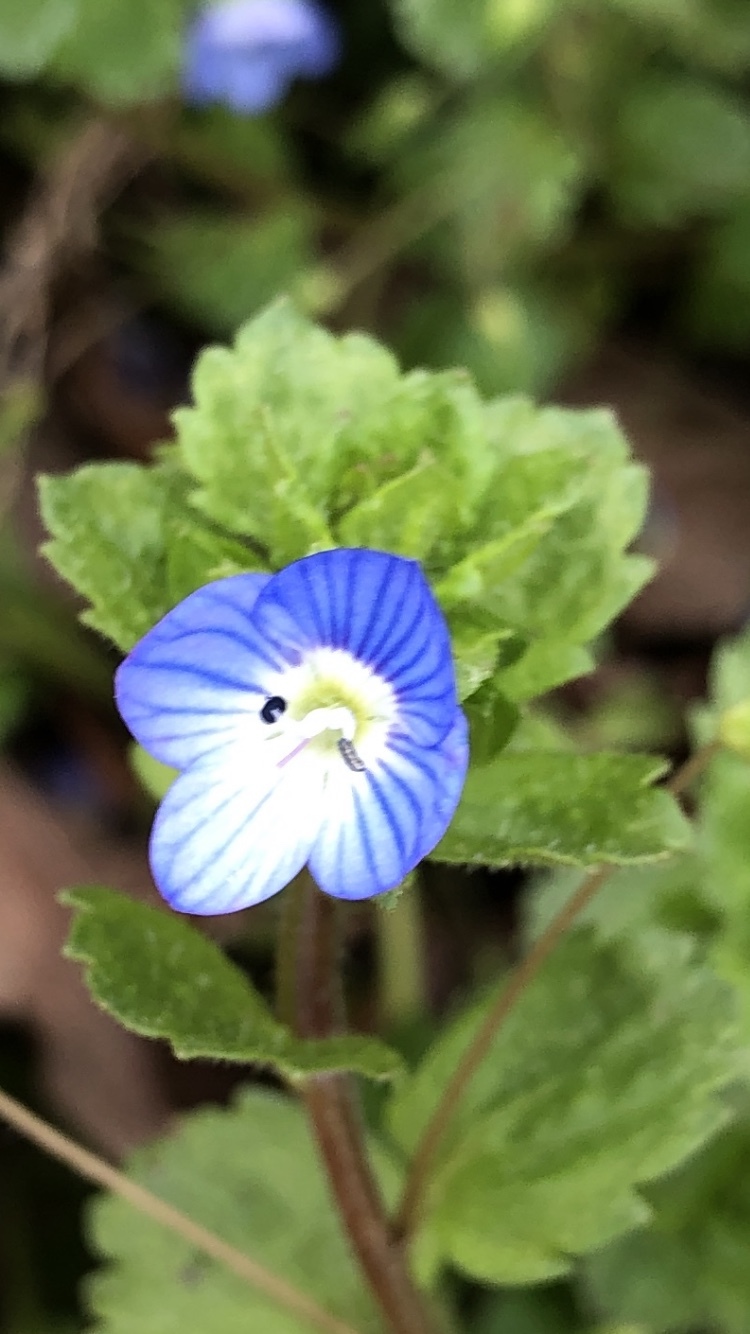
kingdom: Plantae
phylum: Tracheophyta
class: Magnoliopsida
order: Lamiales
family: Plantaginaceae
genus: Veronica
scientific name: Veronica persica
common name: Common field-speedwell
